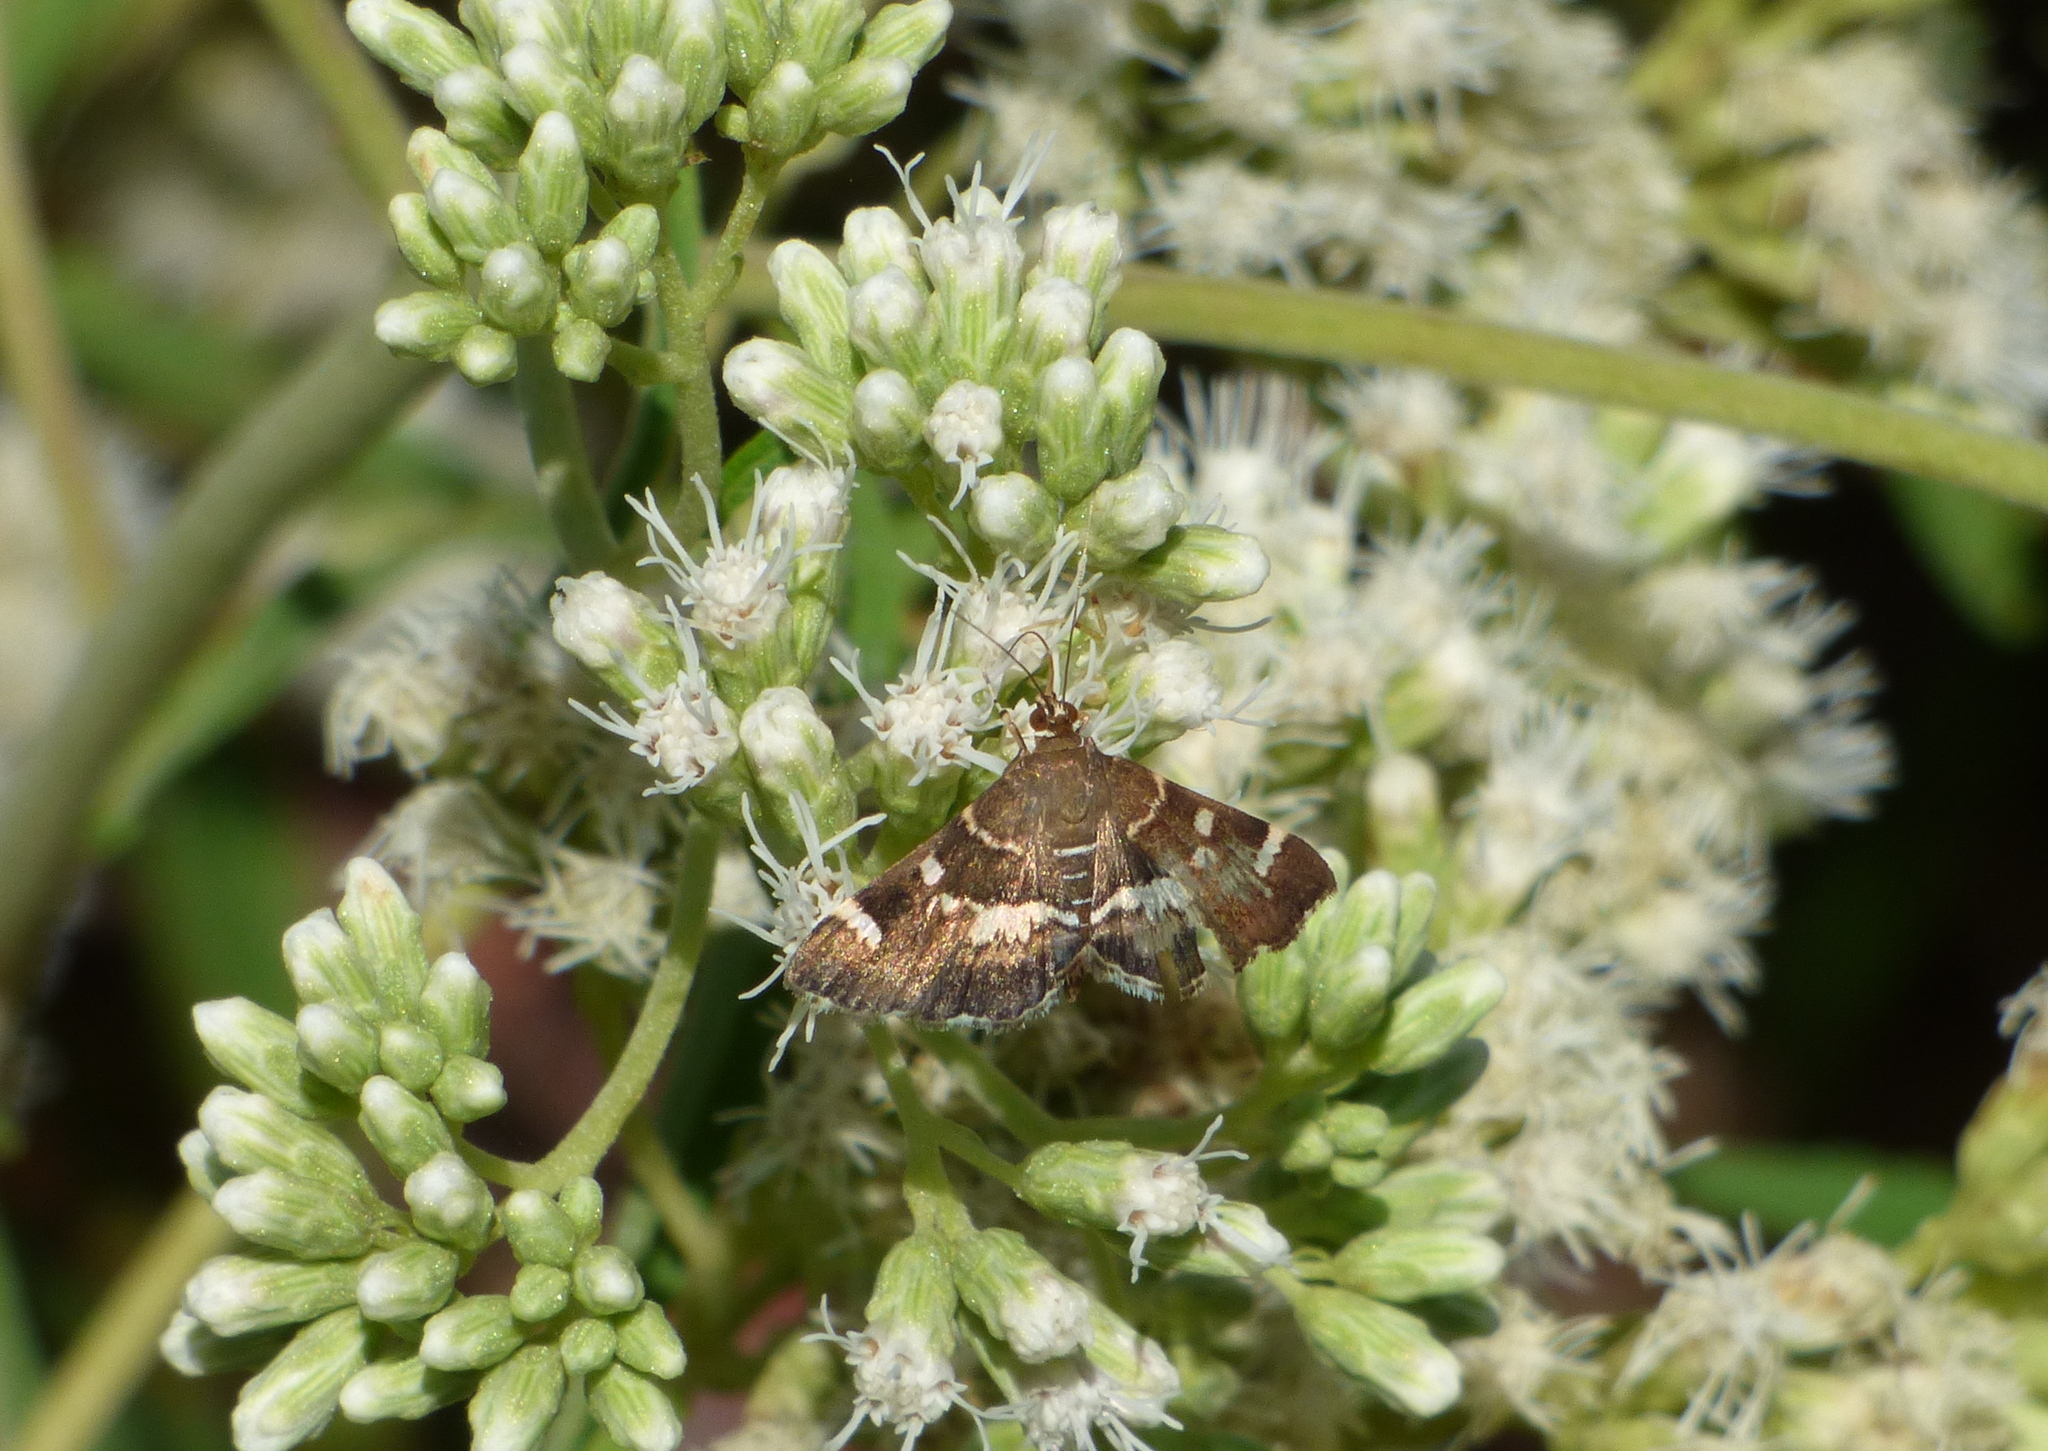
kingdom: Animalia
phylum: Arthropoda
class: Insecta
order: Lepidoptera
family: Crambidae
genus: Hymenia
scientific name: Hymenia perspectalis
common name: Spotted beet webworm
